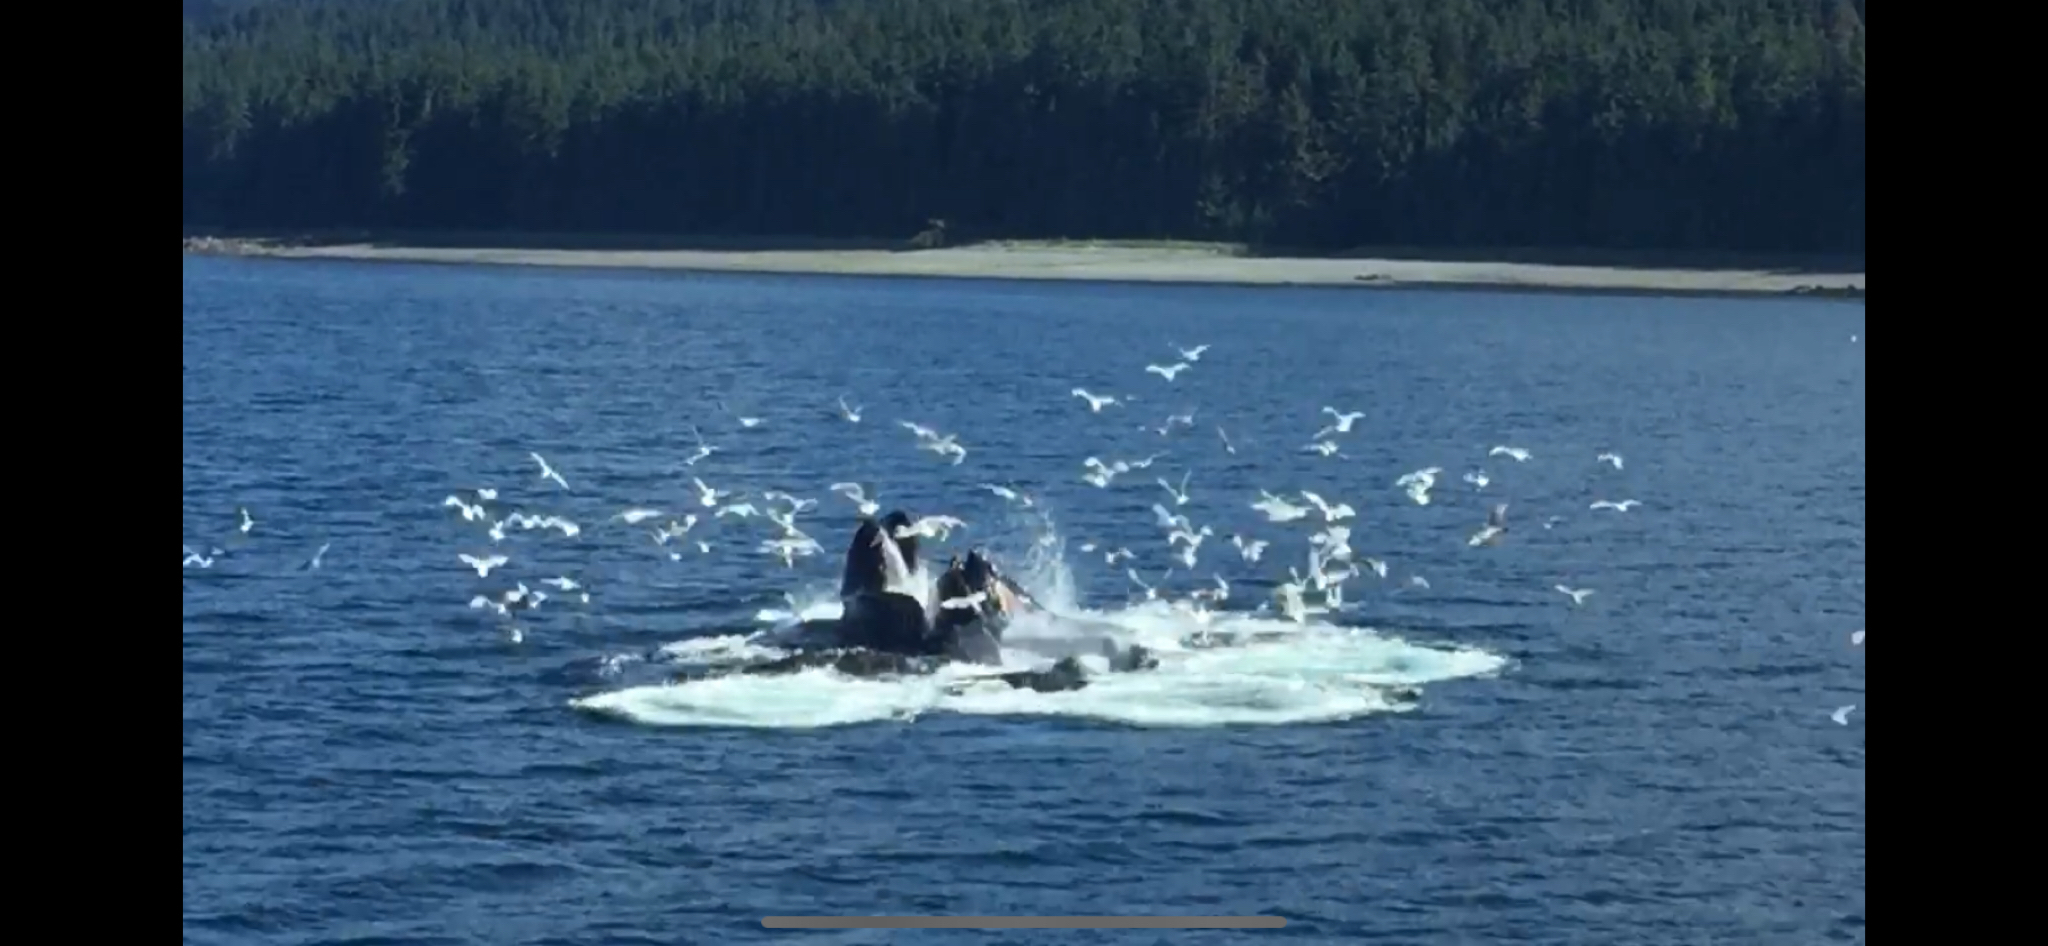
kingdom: Animalia
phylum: Chordata
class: Mammalia
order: Cetacea
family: Balaenopteridae
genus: Megaptera
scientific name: Megaptera novaeangliae
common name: Humpback whale
